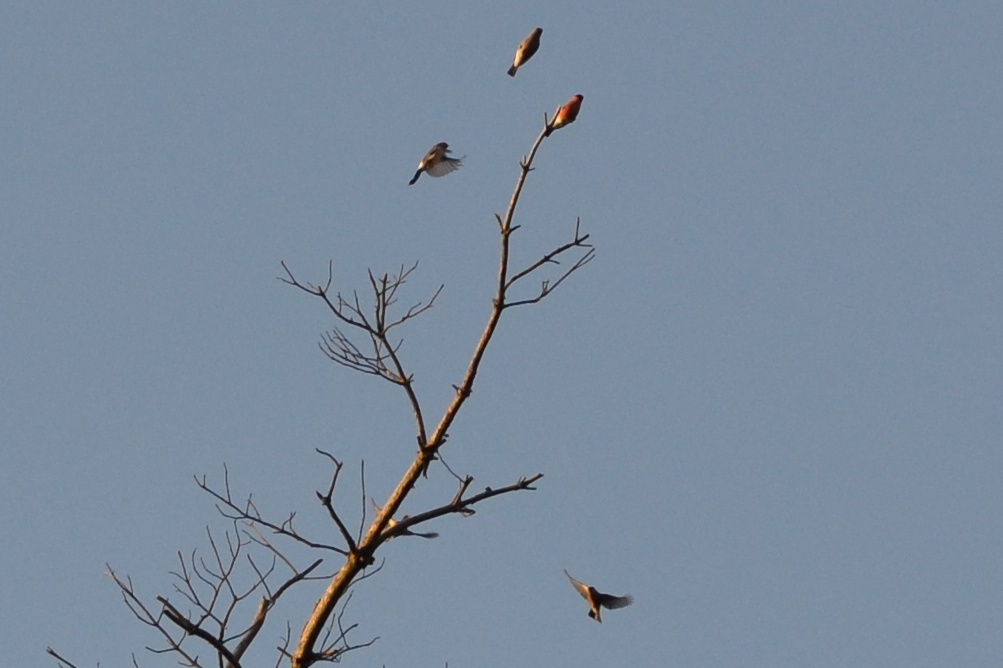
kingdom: Animalia
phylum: Chordata
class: Aves
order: Passeriformes
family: Fringillidae
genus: Pyrrhula
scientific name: Pyrrhula pyrrhula
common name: Eurasian bullfinch
